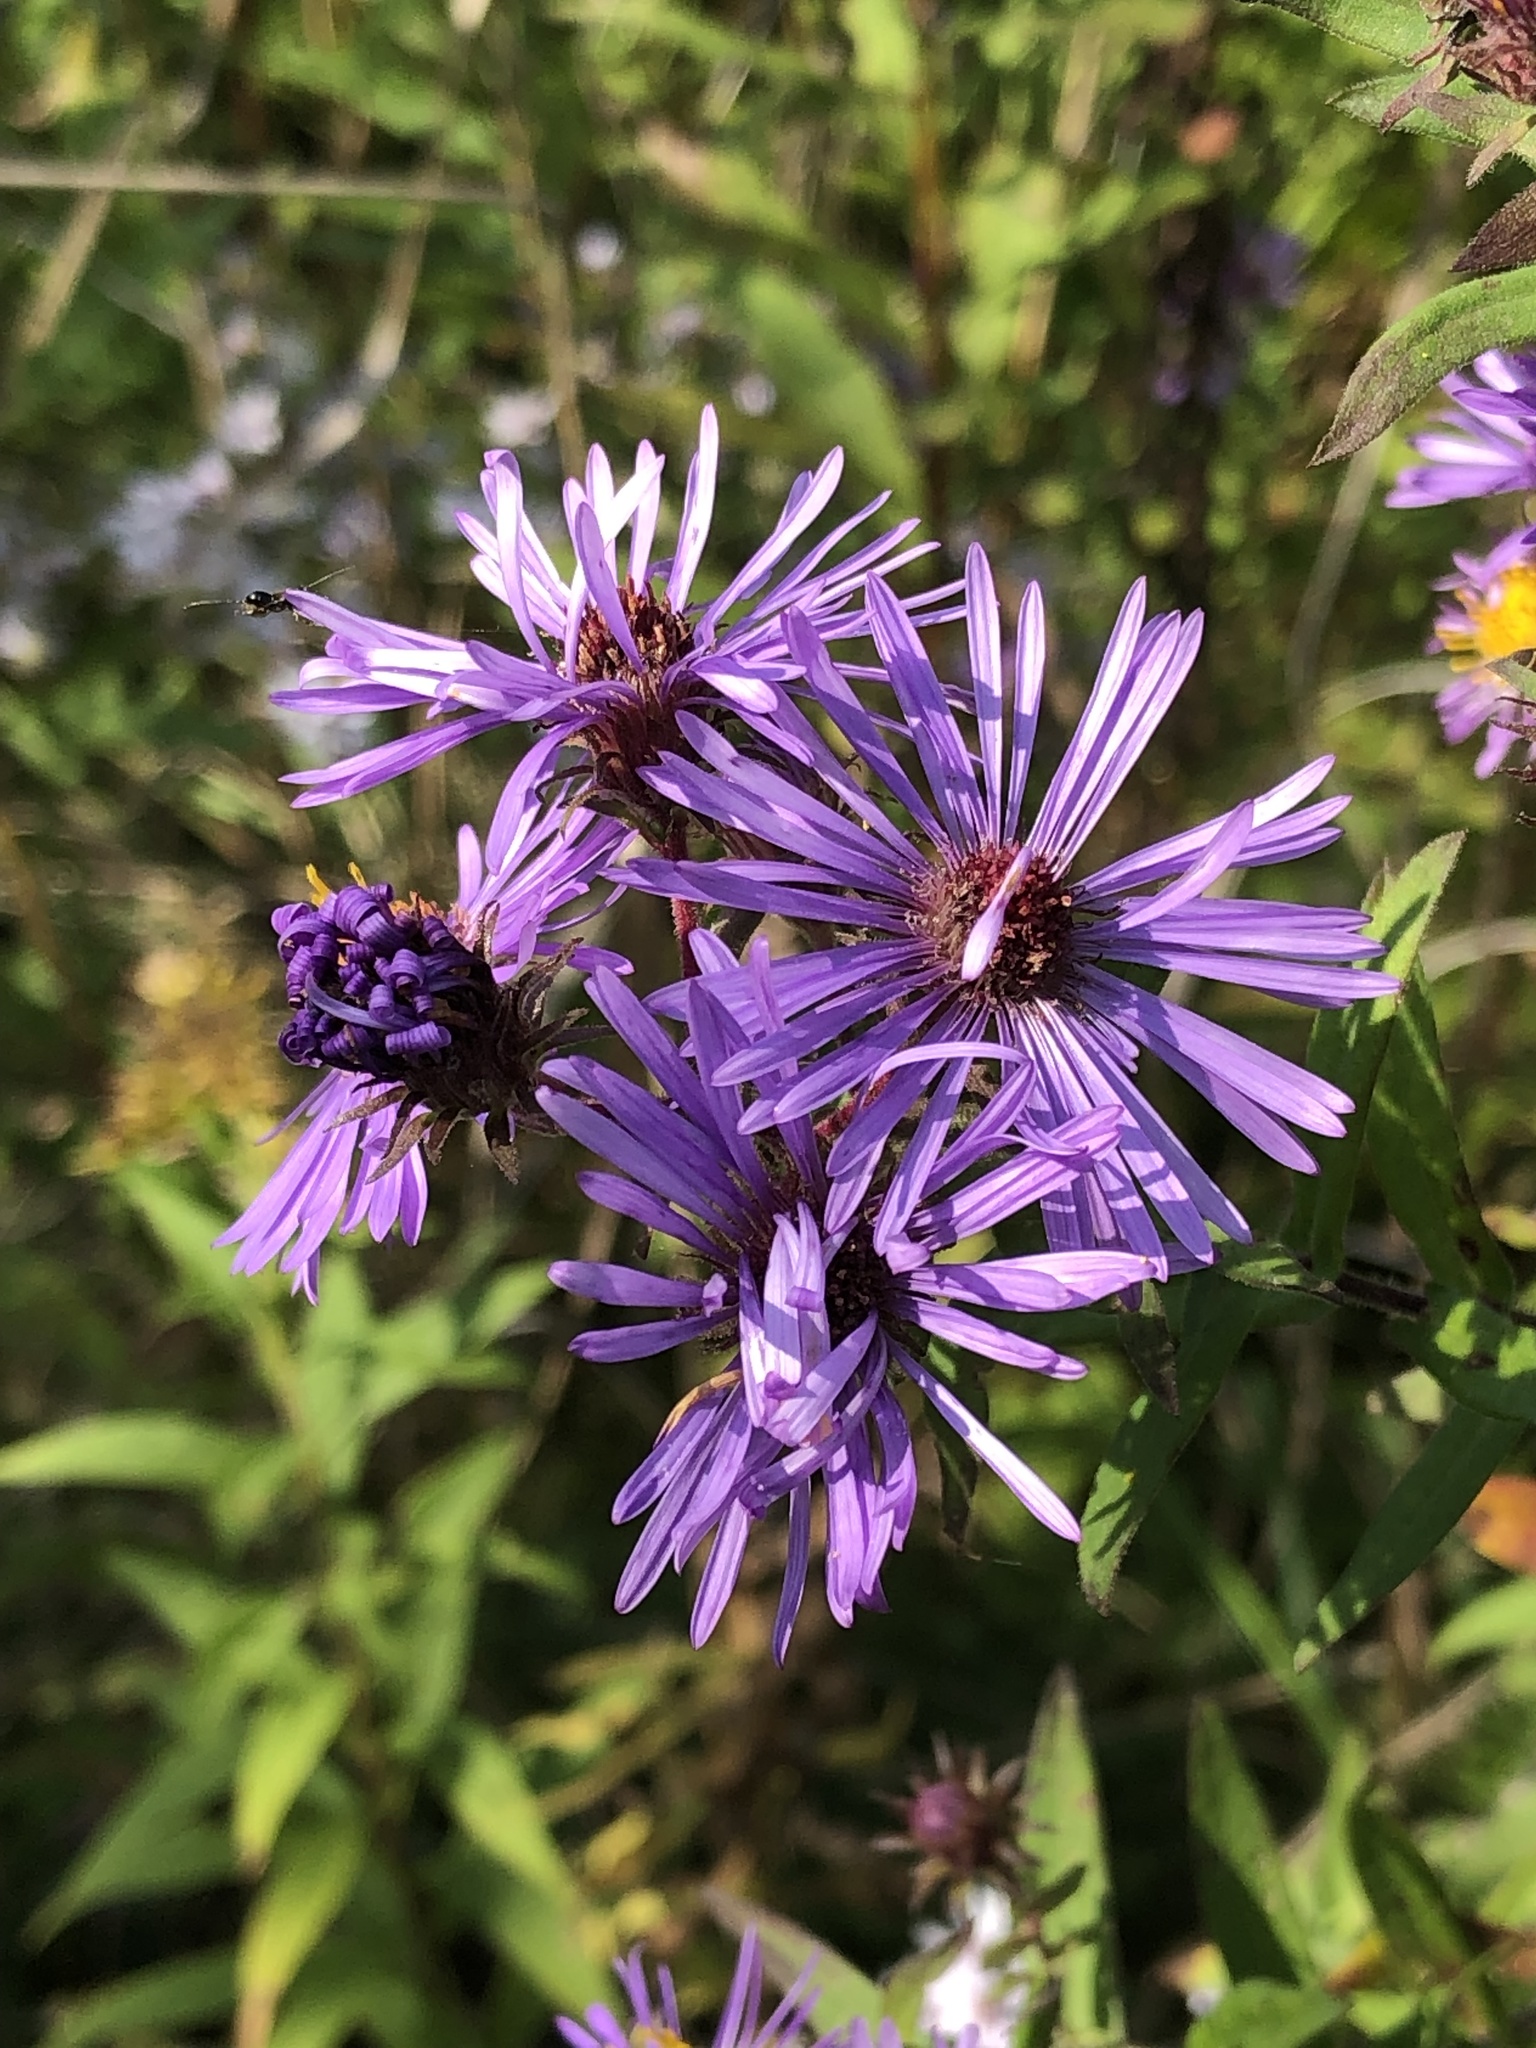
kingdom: Plantae
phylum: Tracheophyta
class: Magnoliopsida
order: Asterales
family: Asteraceae
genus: Symphyotrichum
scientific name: Symphyotrichum novae-angliae
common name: Michaelmas daisy
